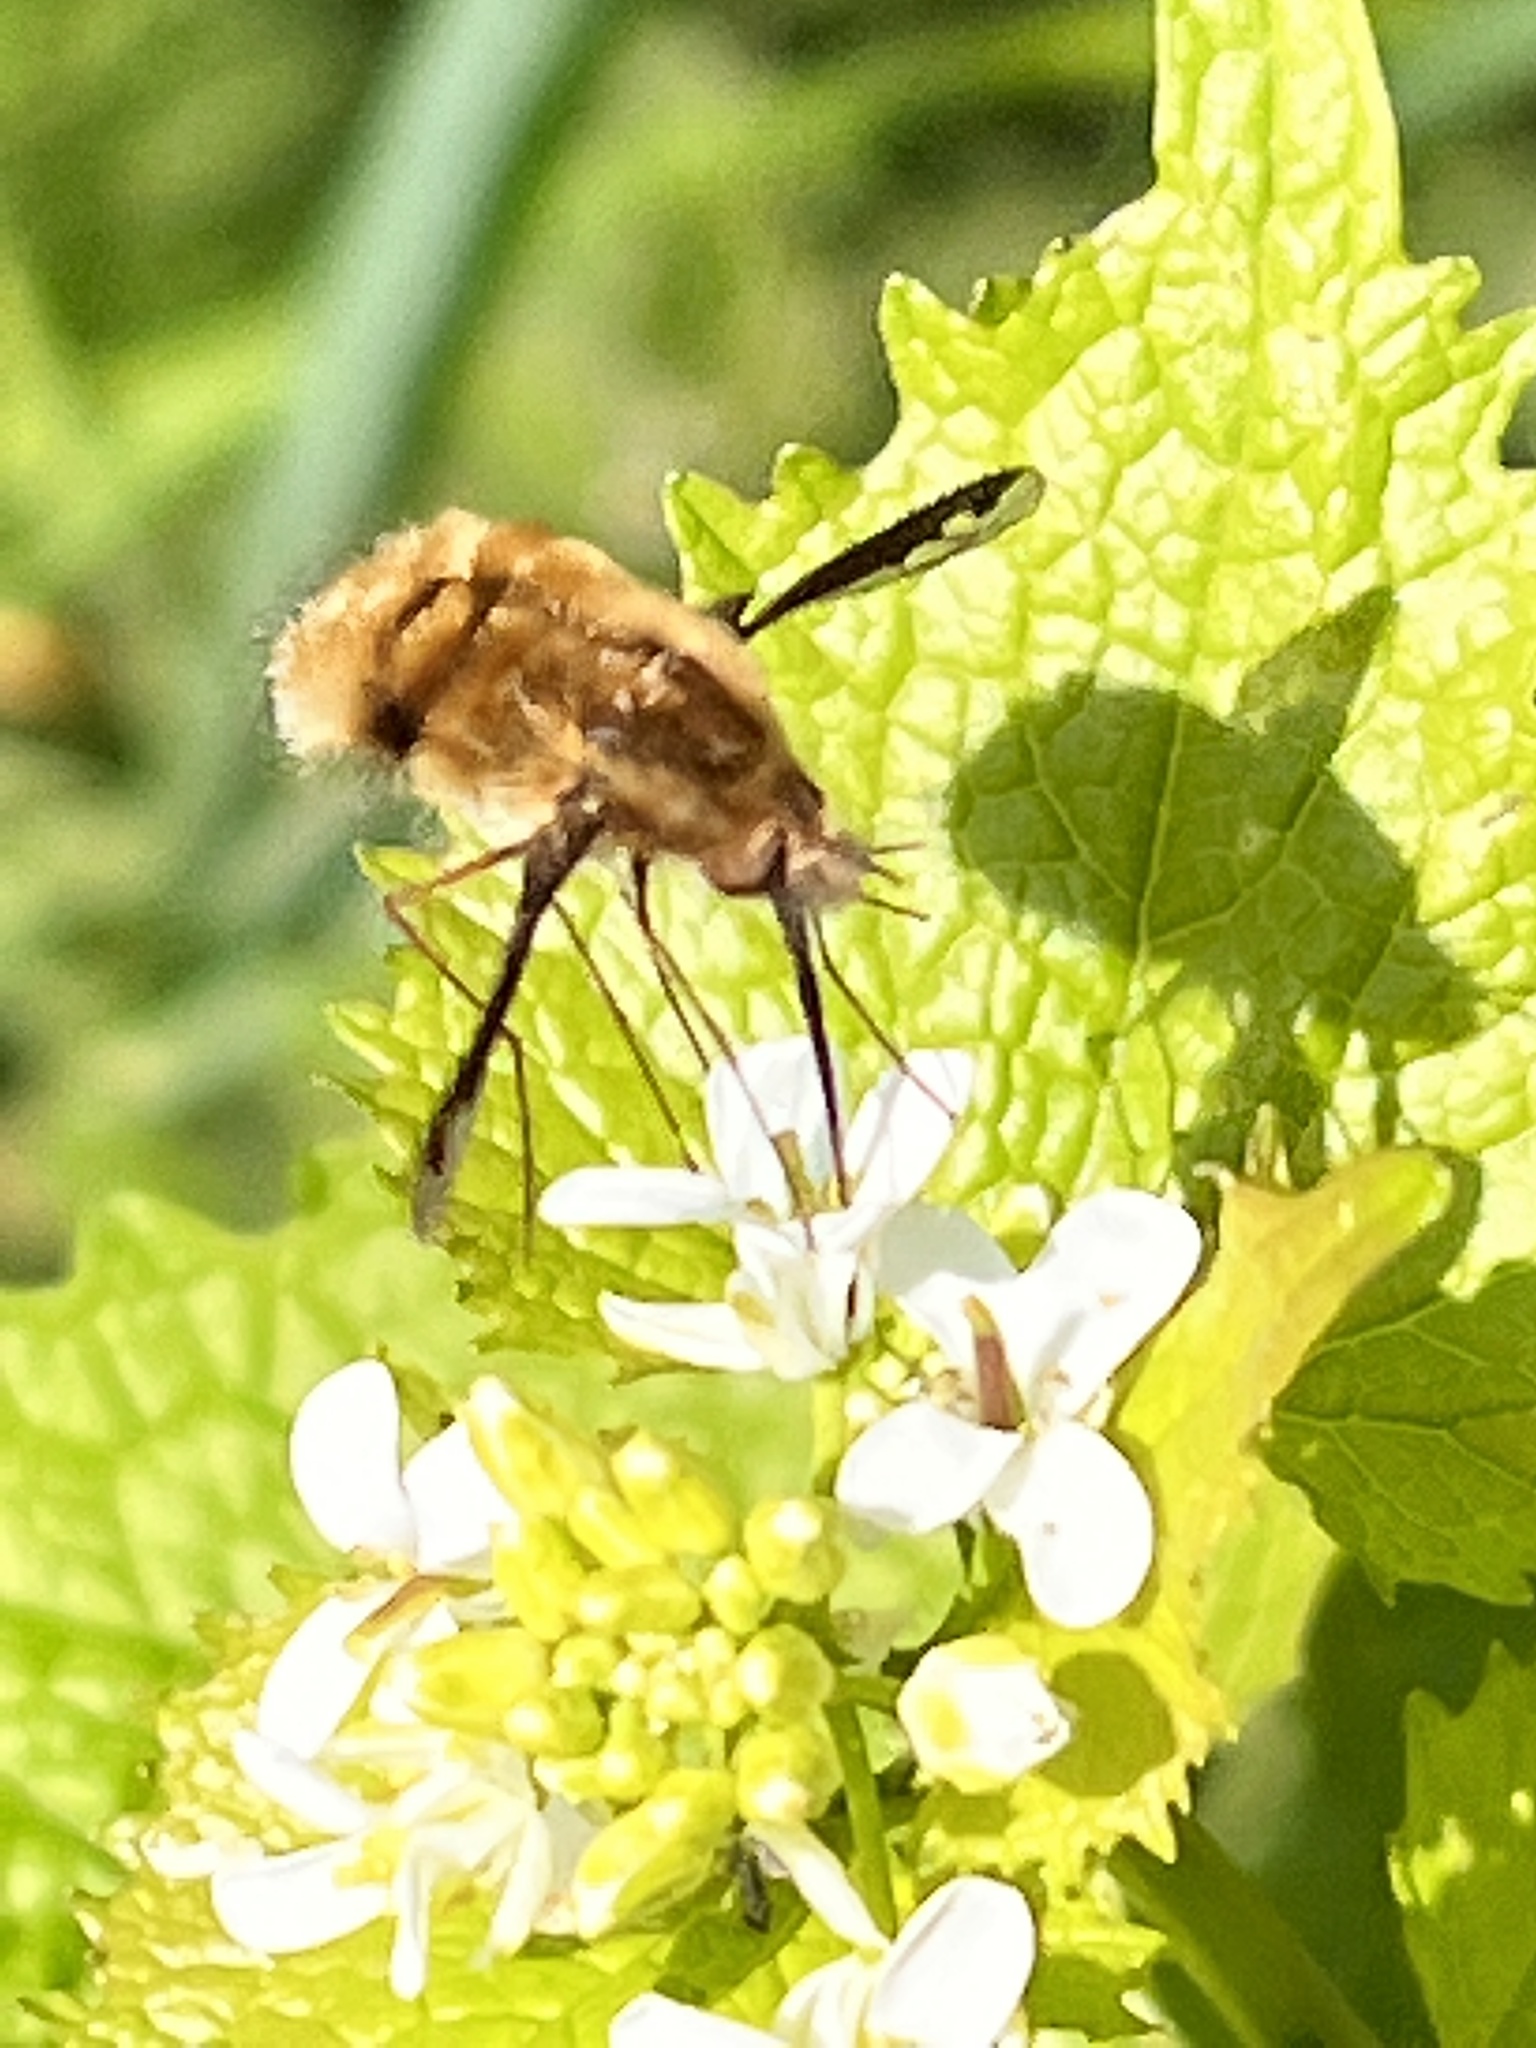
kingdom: Animalia
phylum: Arthropoda
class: Insecta
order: Diptera
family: Bombyliidae
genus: Bombylius
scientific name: Bombylius major
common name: Bee fly
